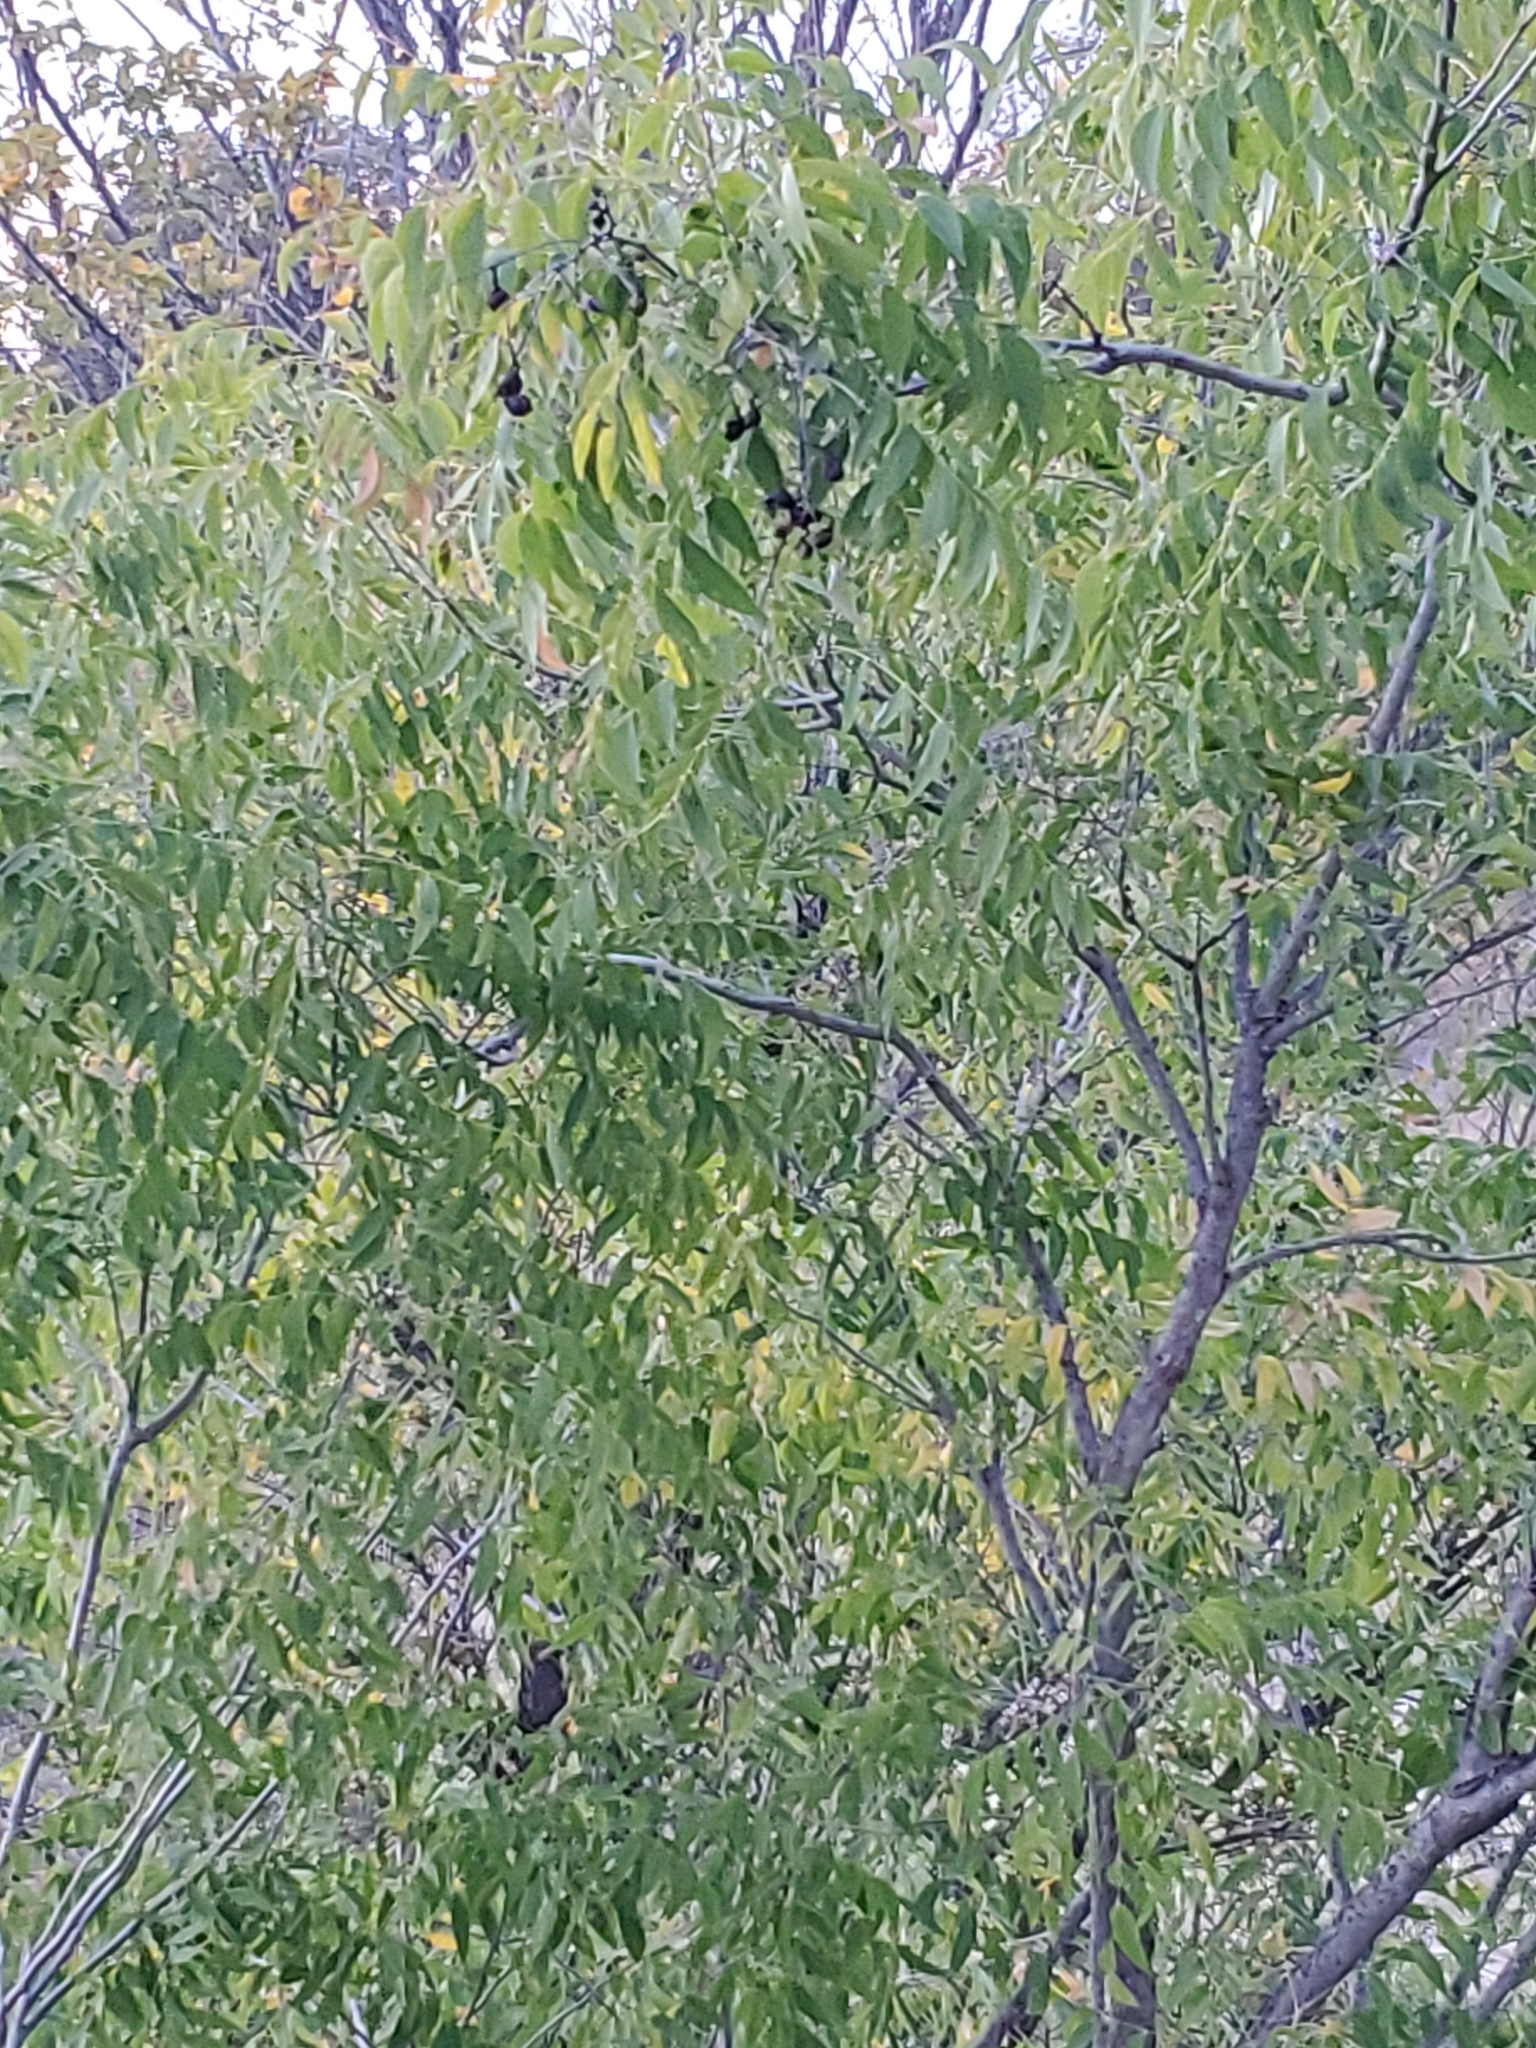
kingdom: Plantae
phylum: Tracheophyta
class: Magnoliopsida
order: Sapindales
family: Sapindaceae
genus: Sapindus
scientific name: Sapindus drummondii
